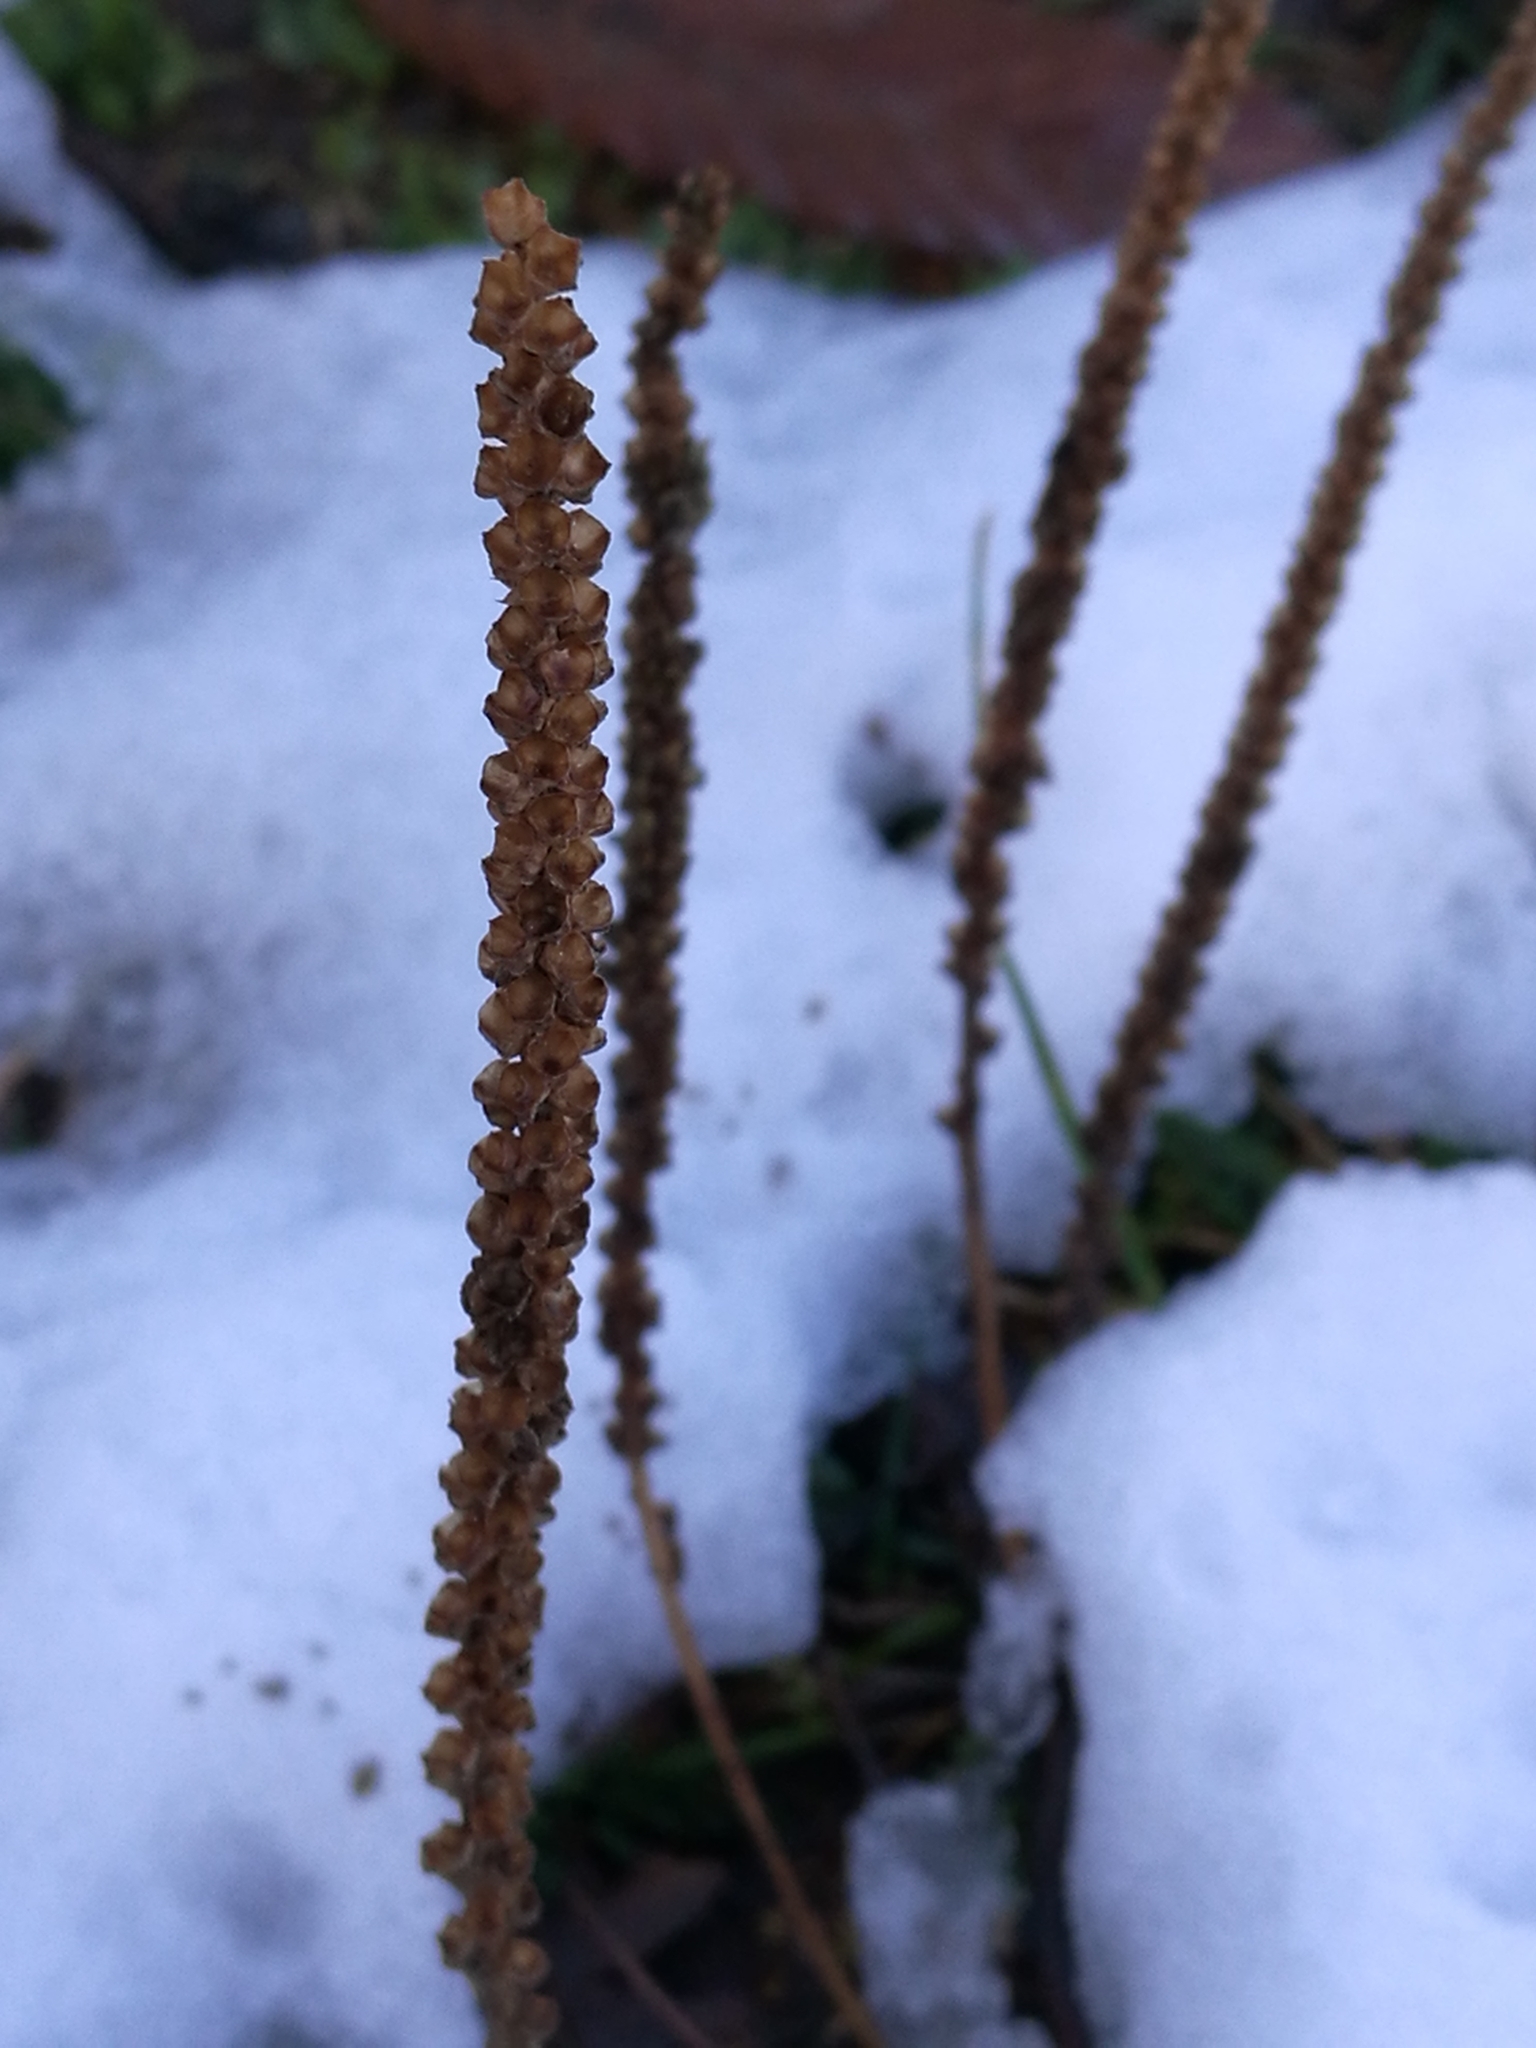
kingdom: Plantae
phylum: Tracheophyta
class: Magnoliopsida
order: Lamiales
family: Plantaginaceae
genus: Plantago
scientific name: Plantago major
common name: Common plantain
